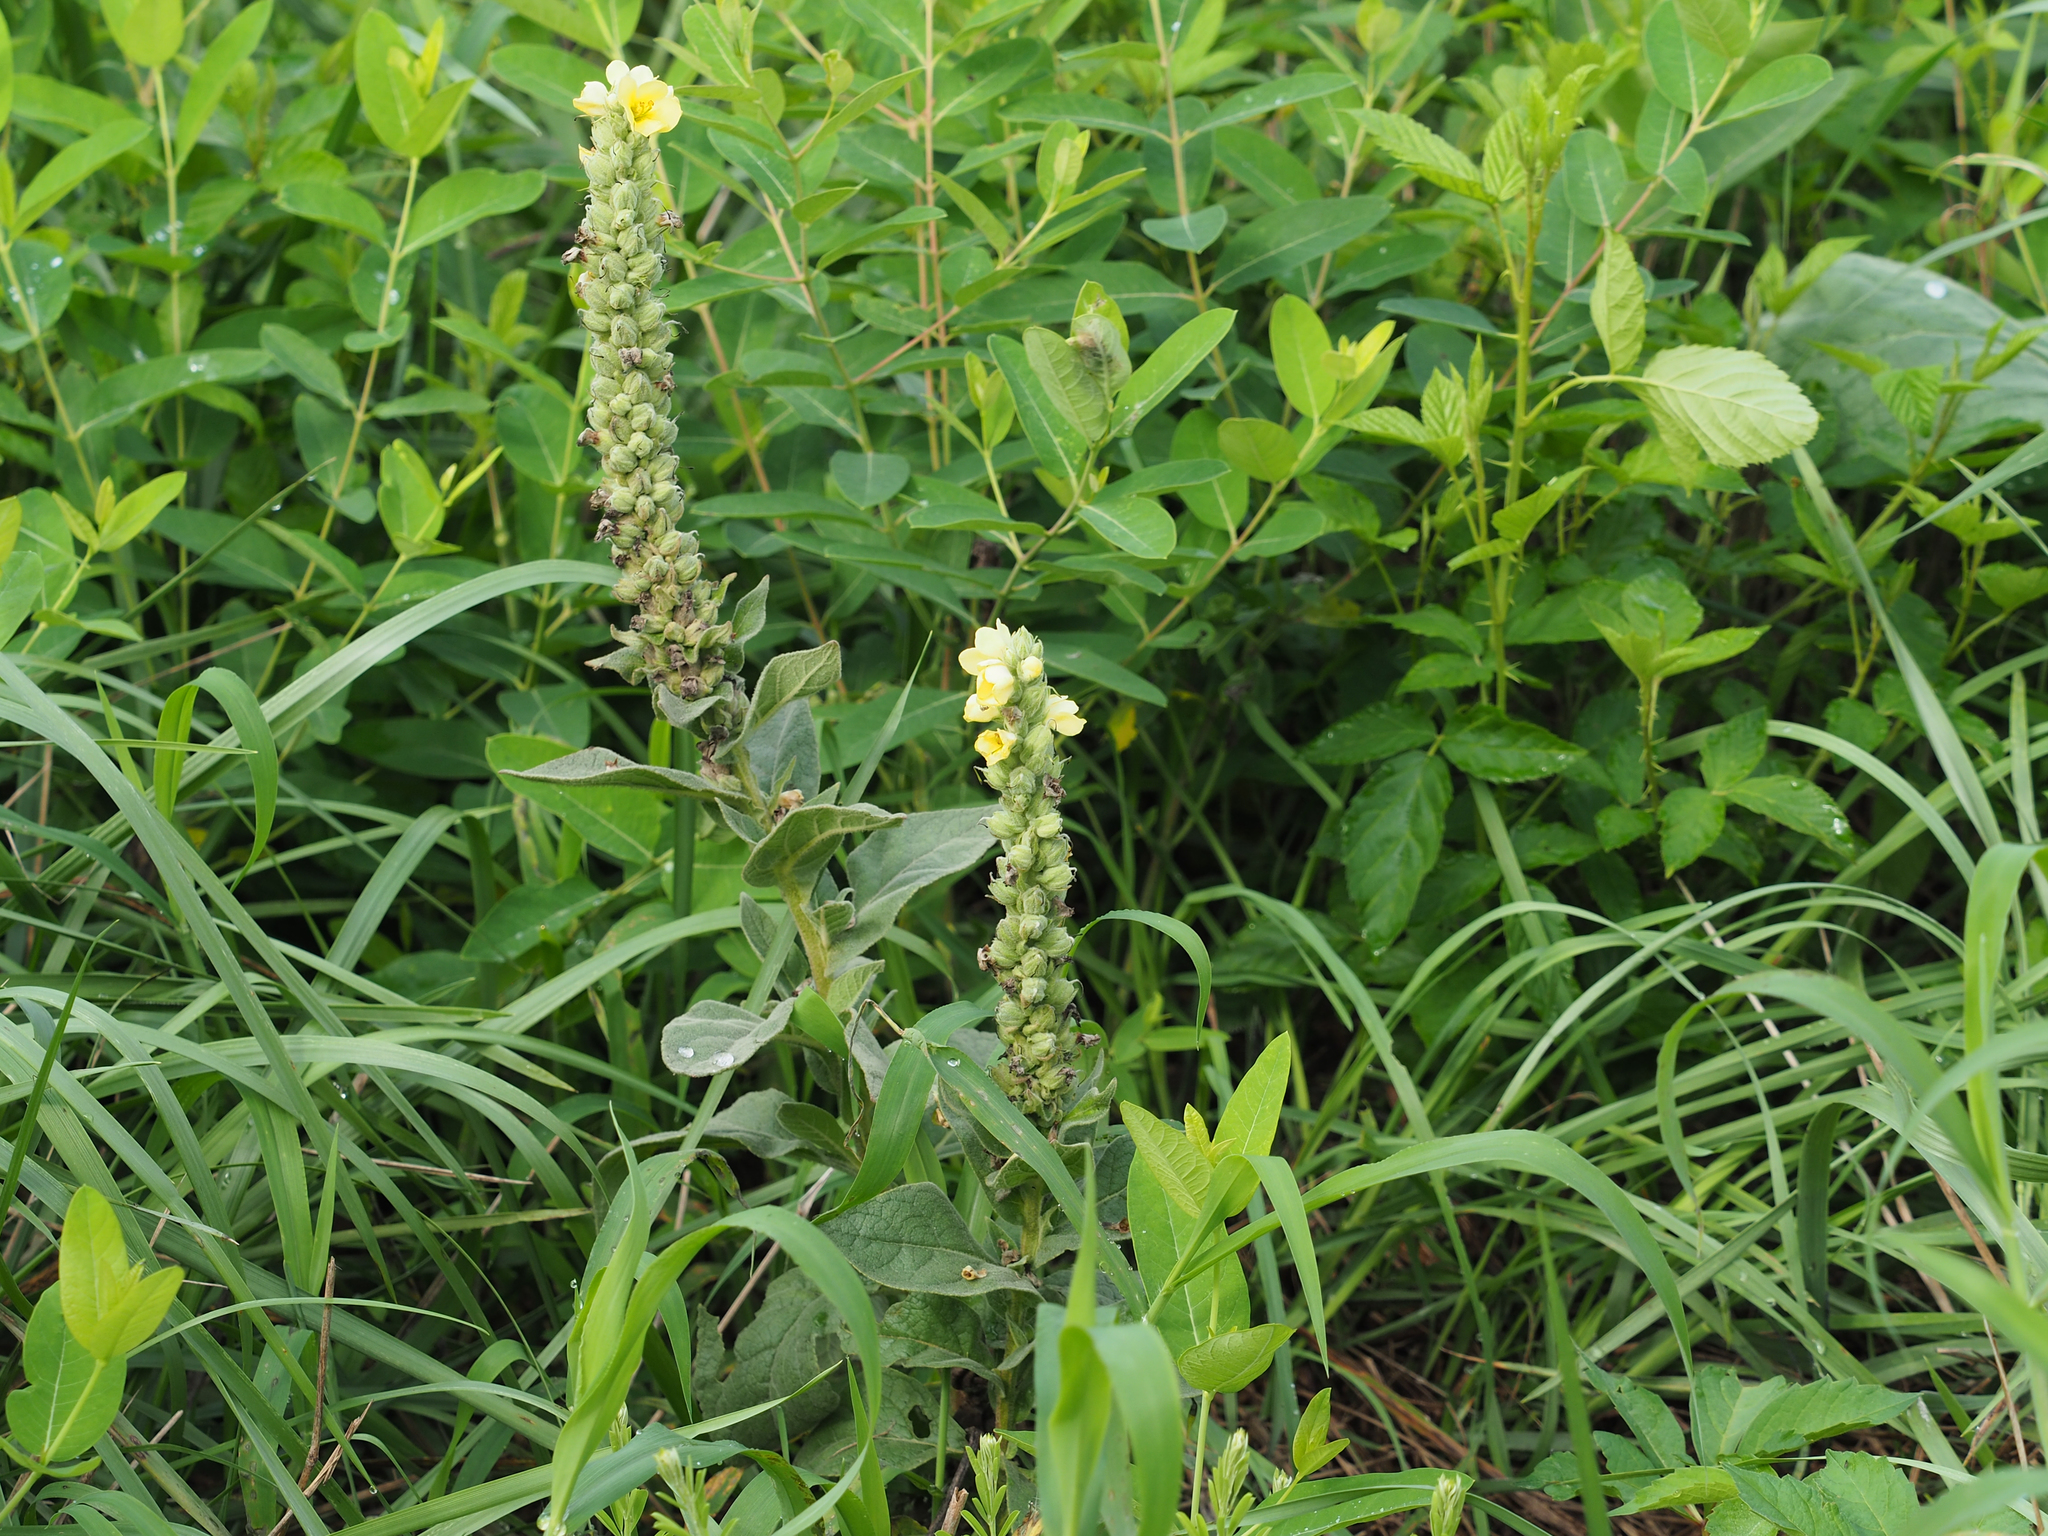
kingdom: Plantae
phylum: Tracheophyta
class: Magnoliopsida
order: Lamiales
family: Scrophulariaceae
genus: Verbascum
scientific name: Verbascum thapsus
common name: Common mullein
